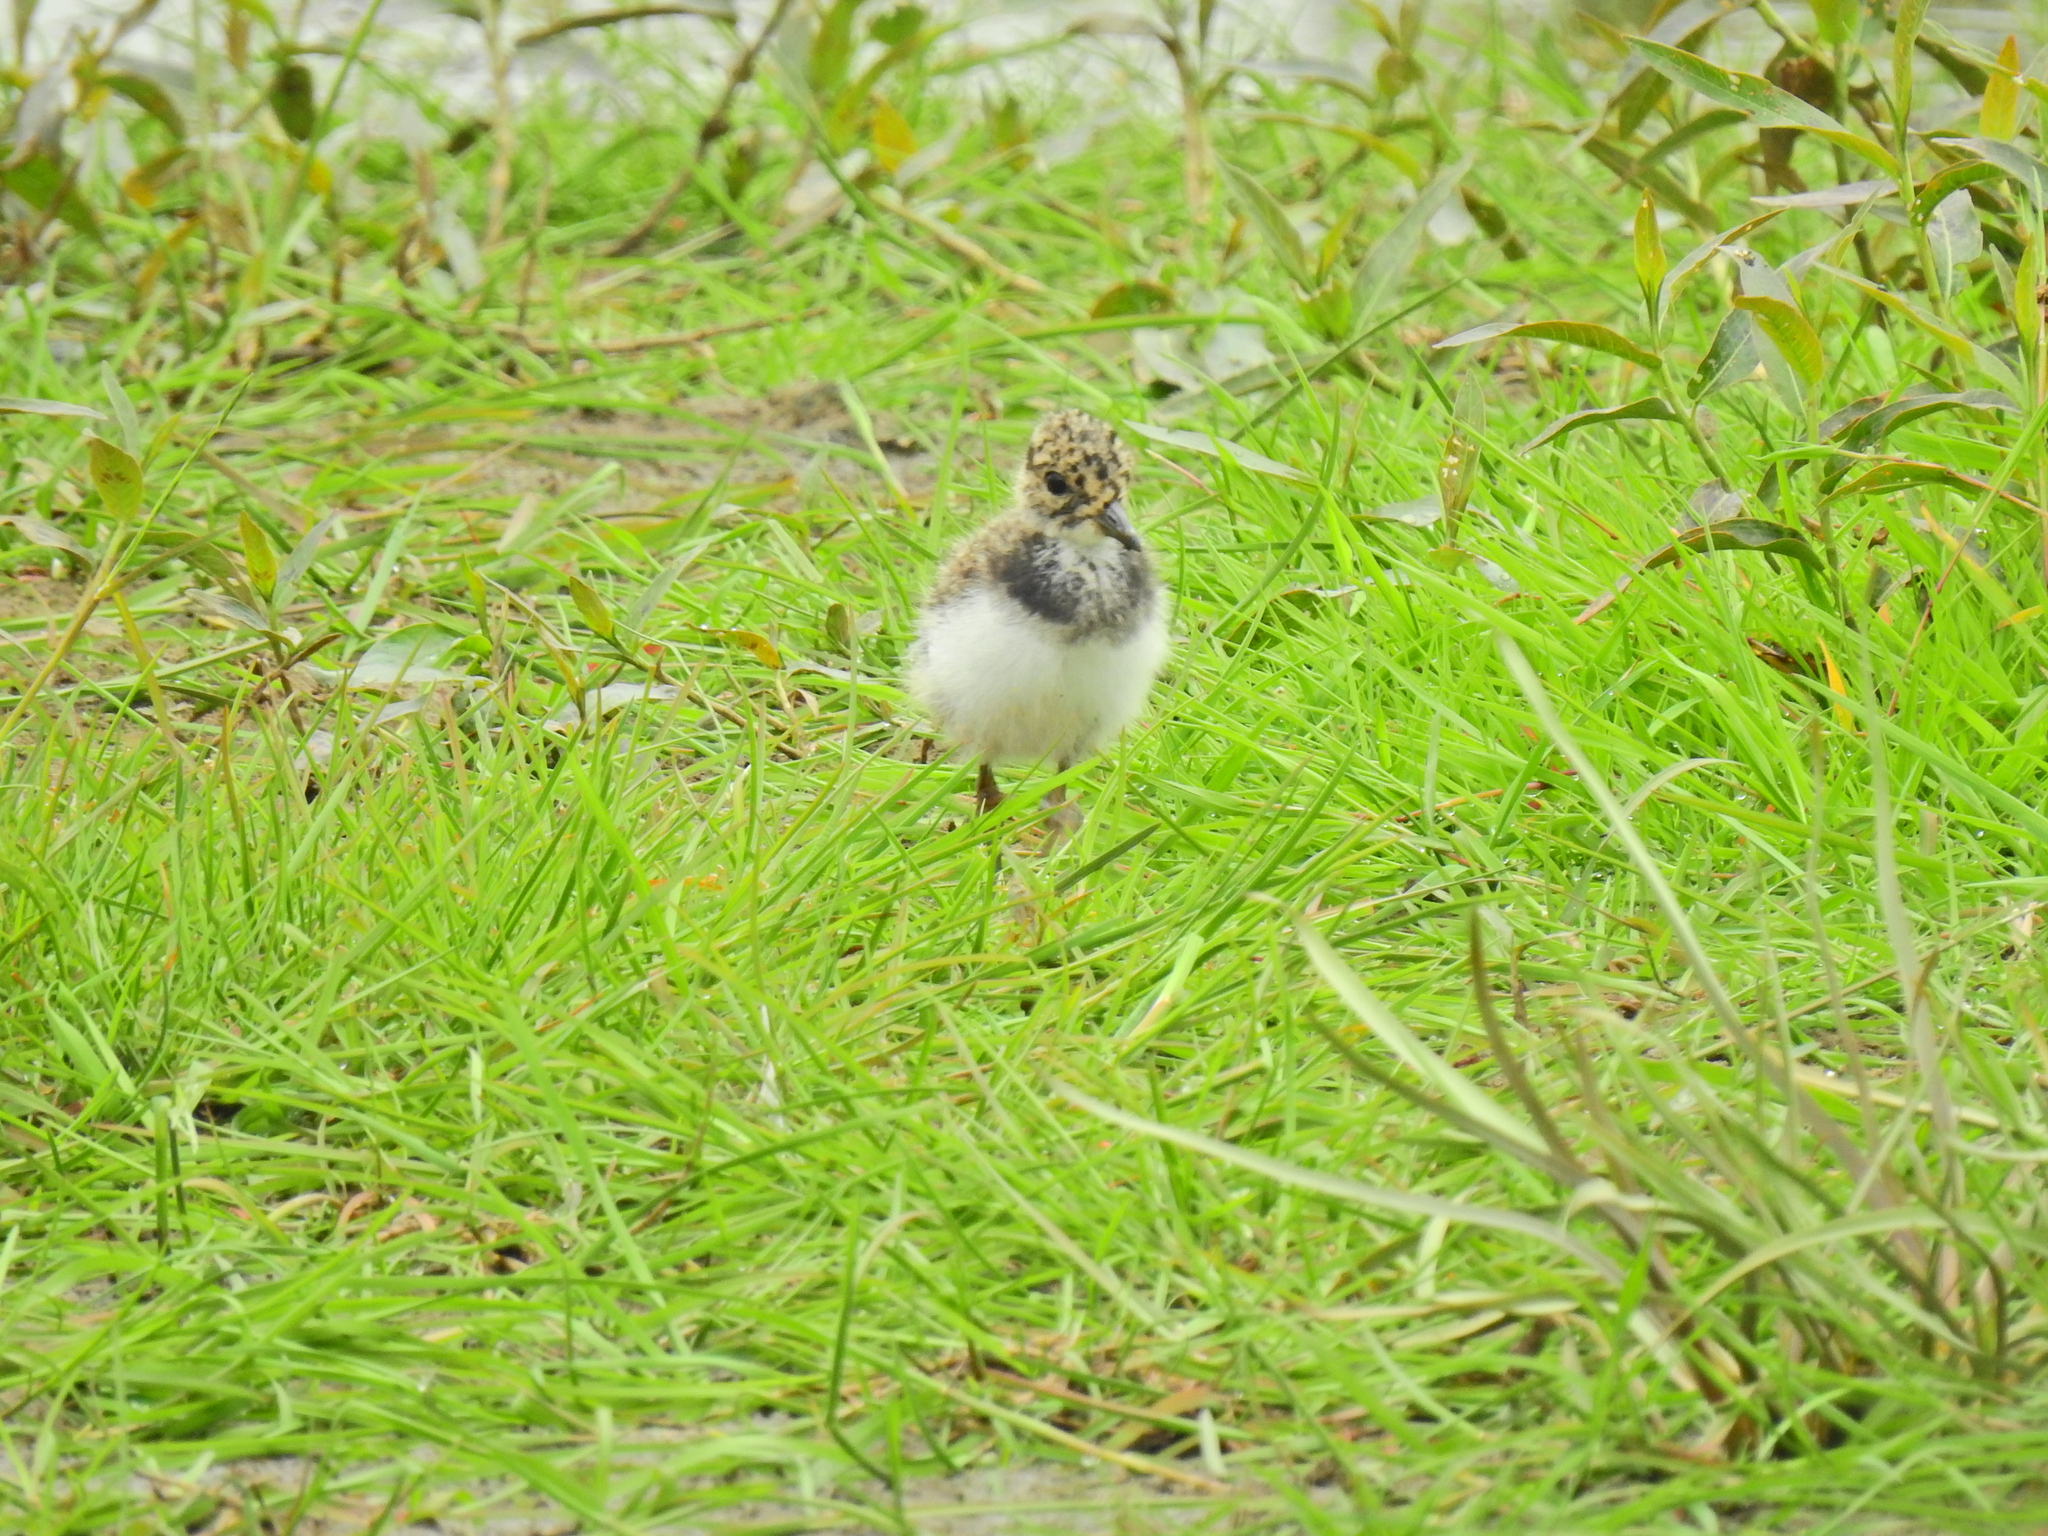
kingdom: Animalia
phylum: Chordata
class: Aves
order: Charadriiformes
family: Charadriidae
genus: Vanellus
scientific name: Vanellus vanellus
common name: Northern lapwing
